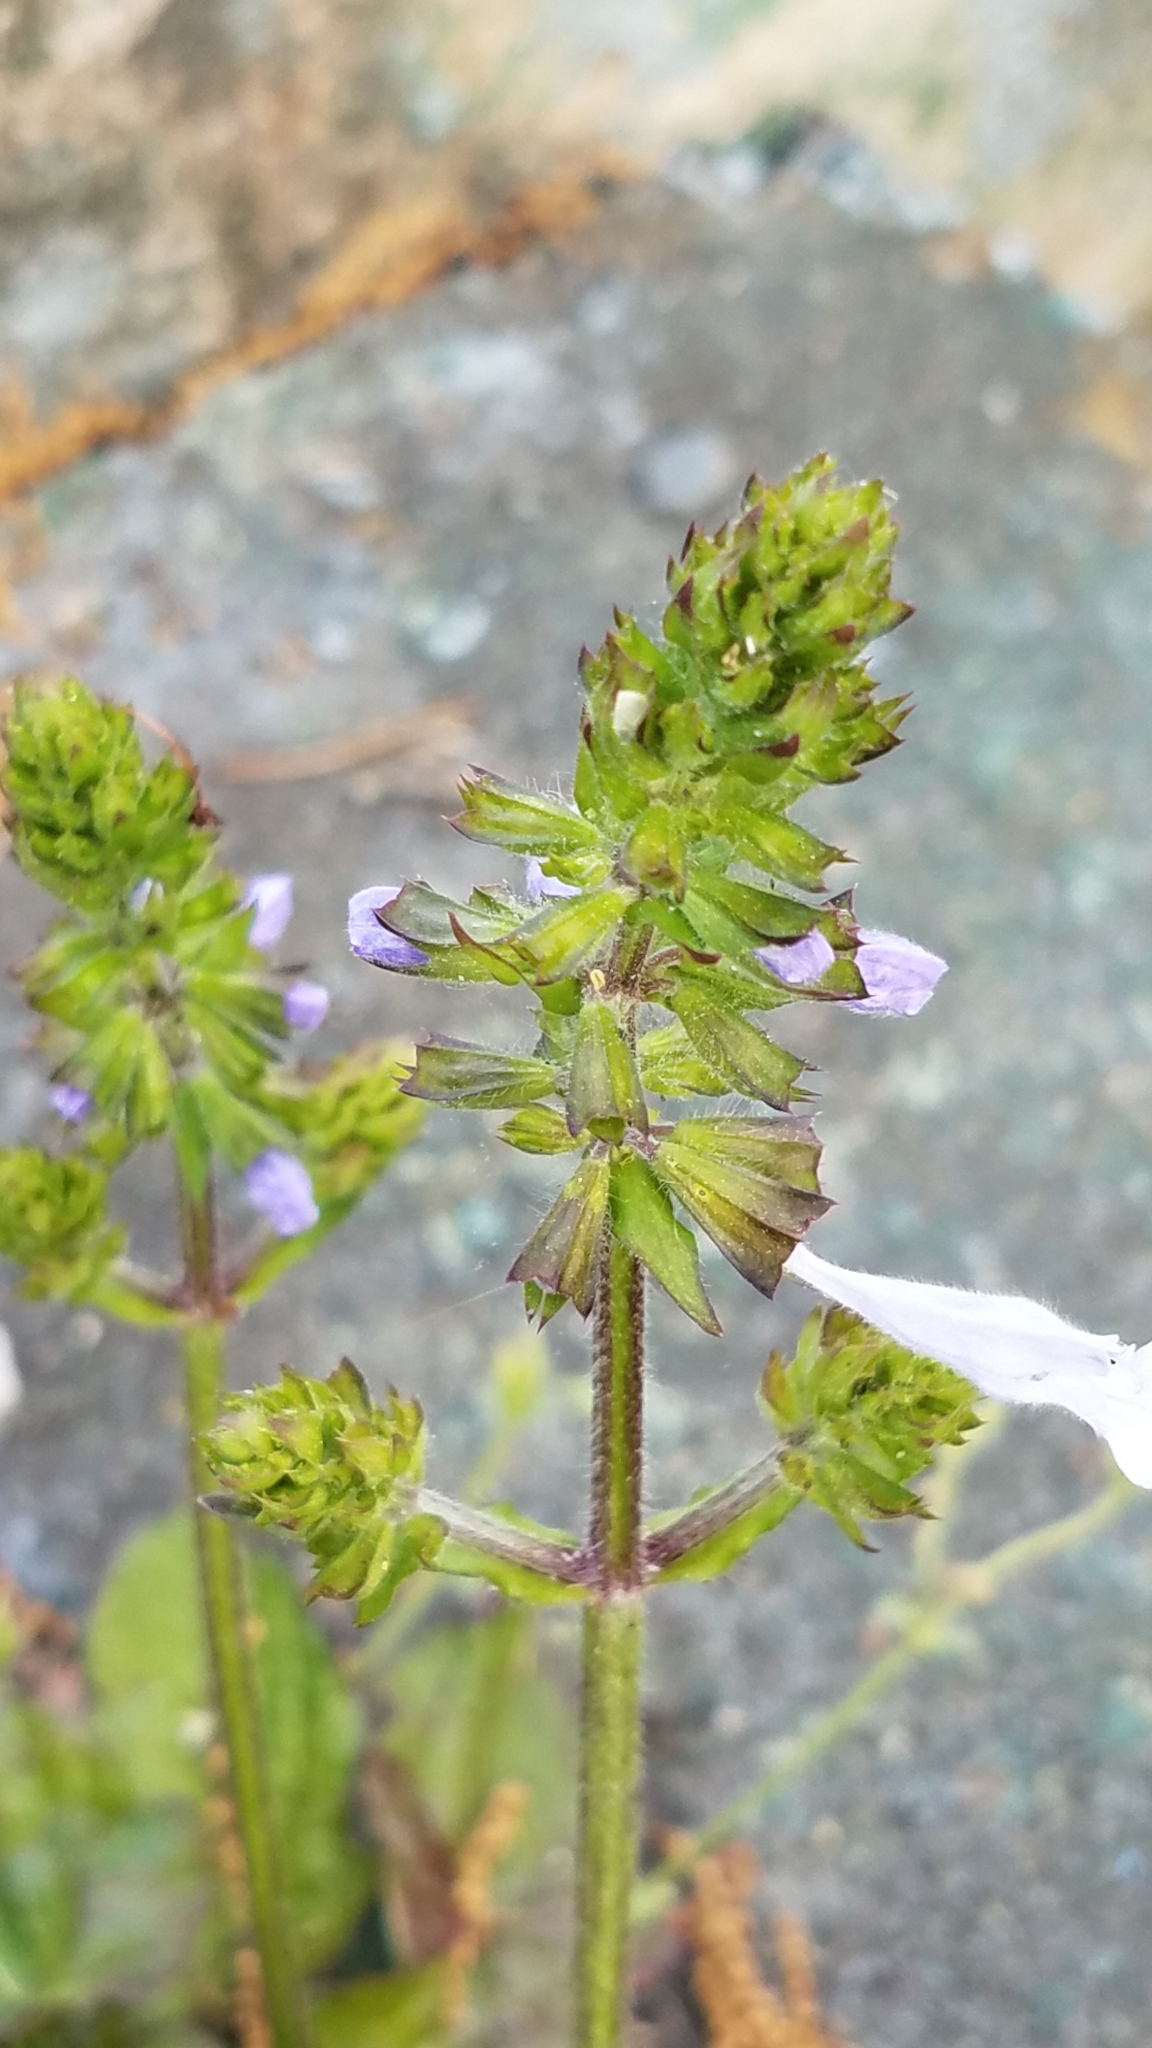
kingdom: Plantae
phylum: Tracheophyta
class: Magnoliopsida
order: Lamiales
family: Lamiaceae
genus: Salvia
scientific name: Salvia lyrata
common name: Cancerweed
